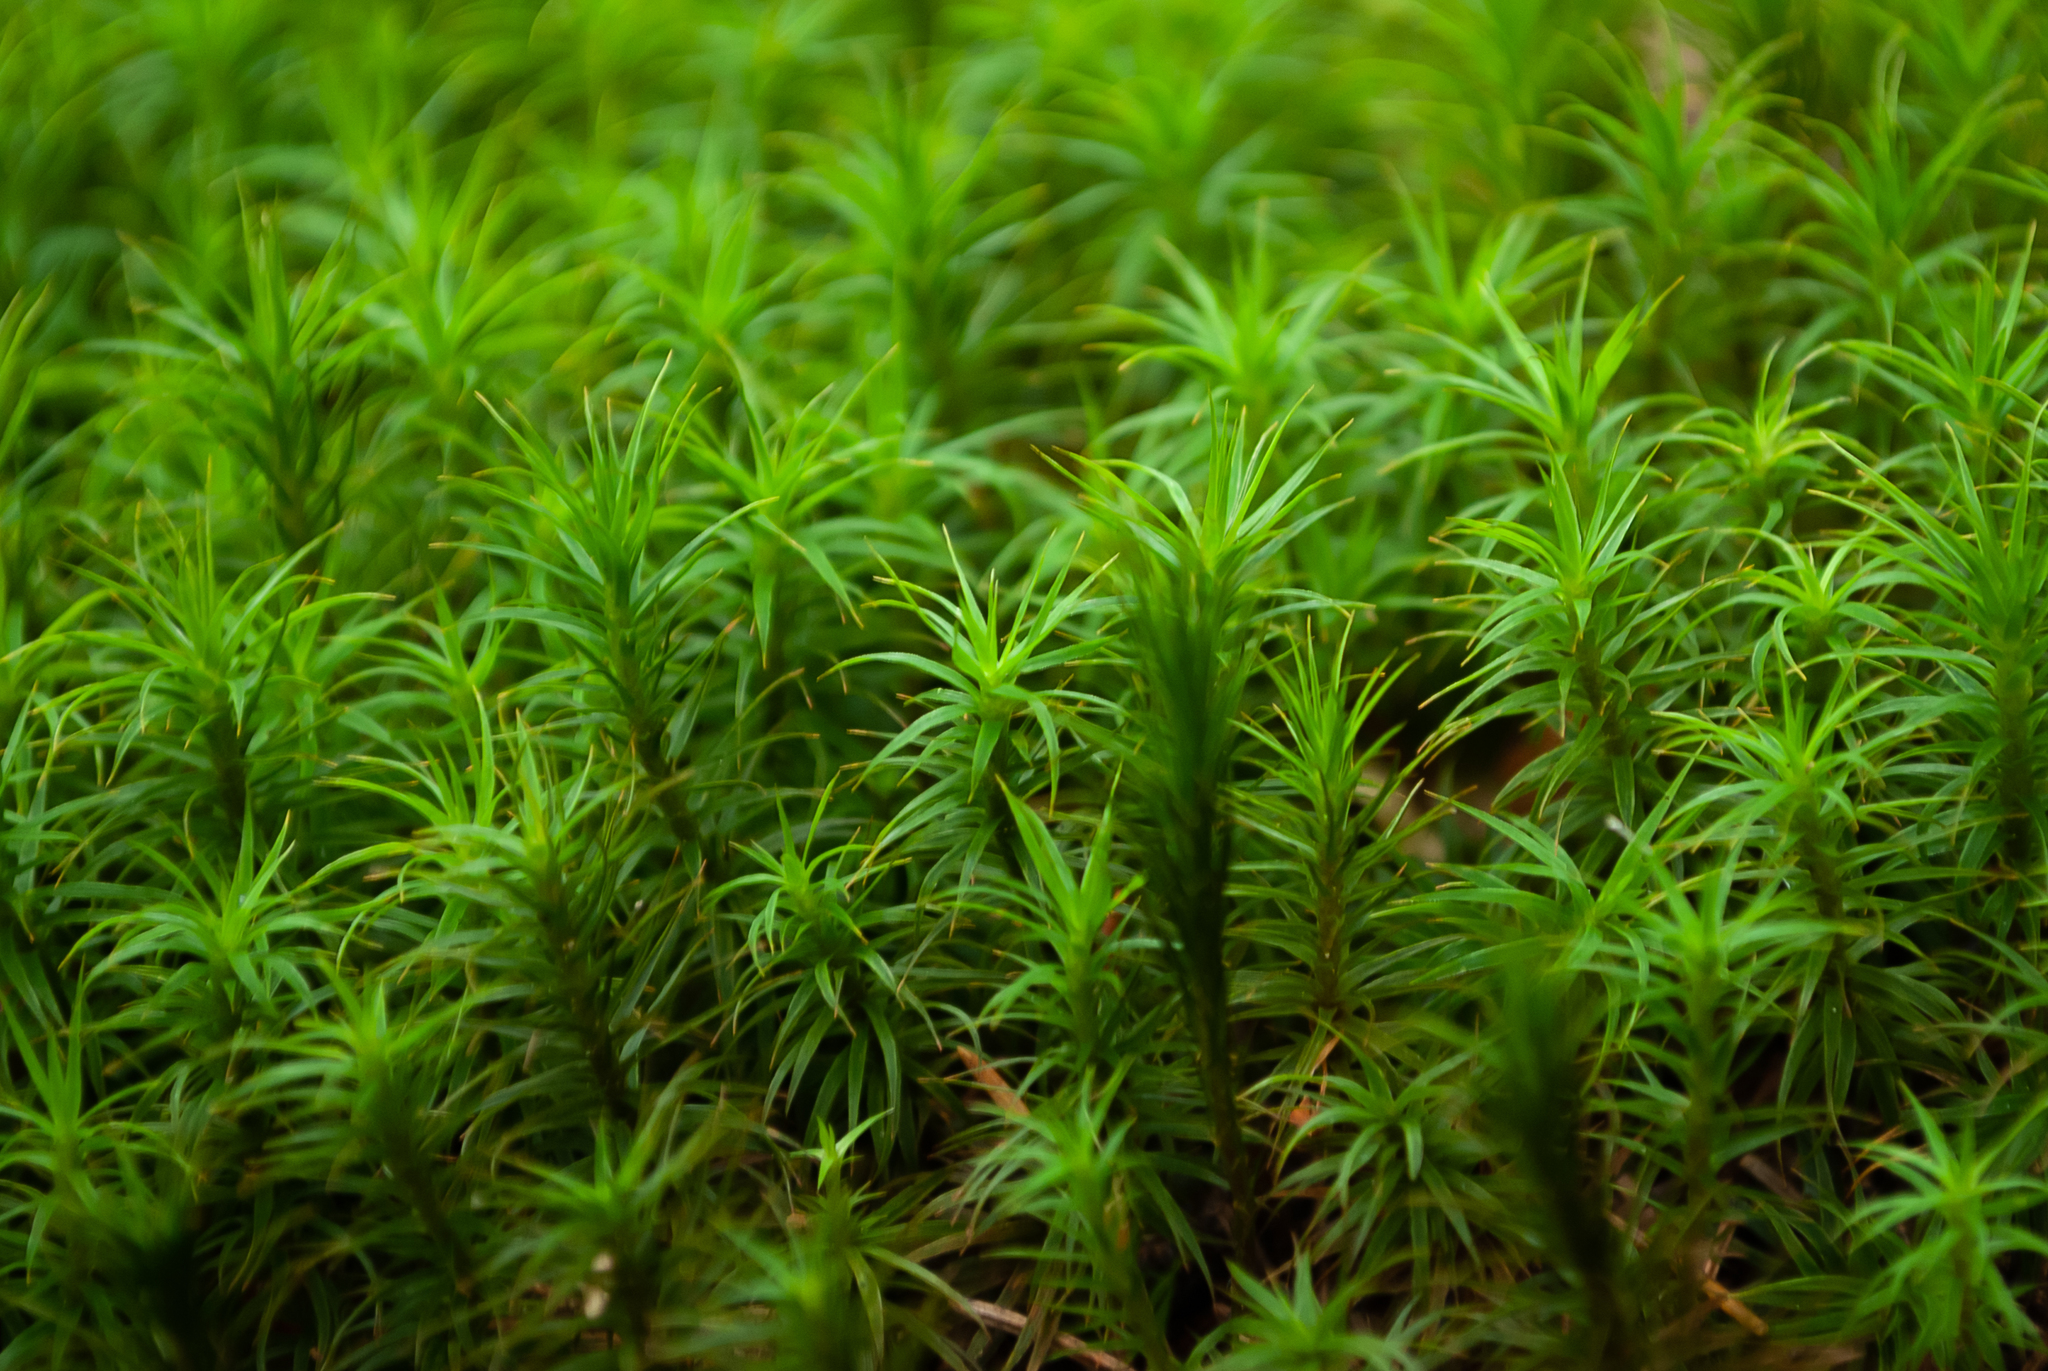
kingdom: Plantae
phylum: Bryophyta
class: Polytrichopsida
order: Polytrichales
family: Polytrichaceae
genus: Polytrichum
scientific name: Polytrichum formosum
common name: Bank haircap moss
